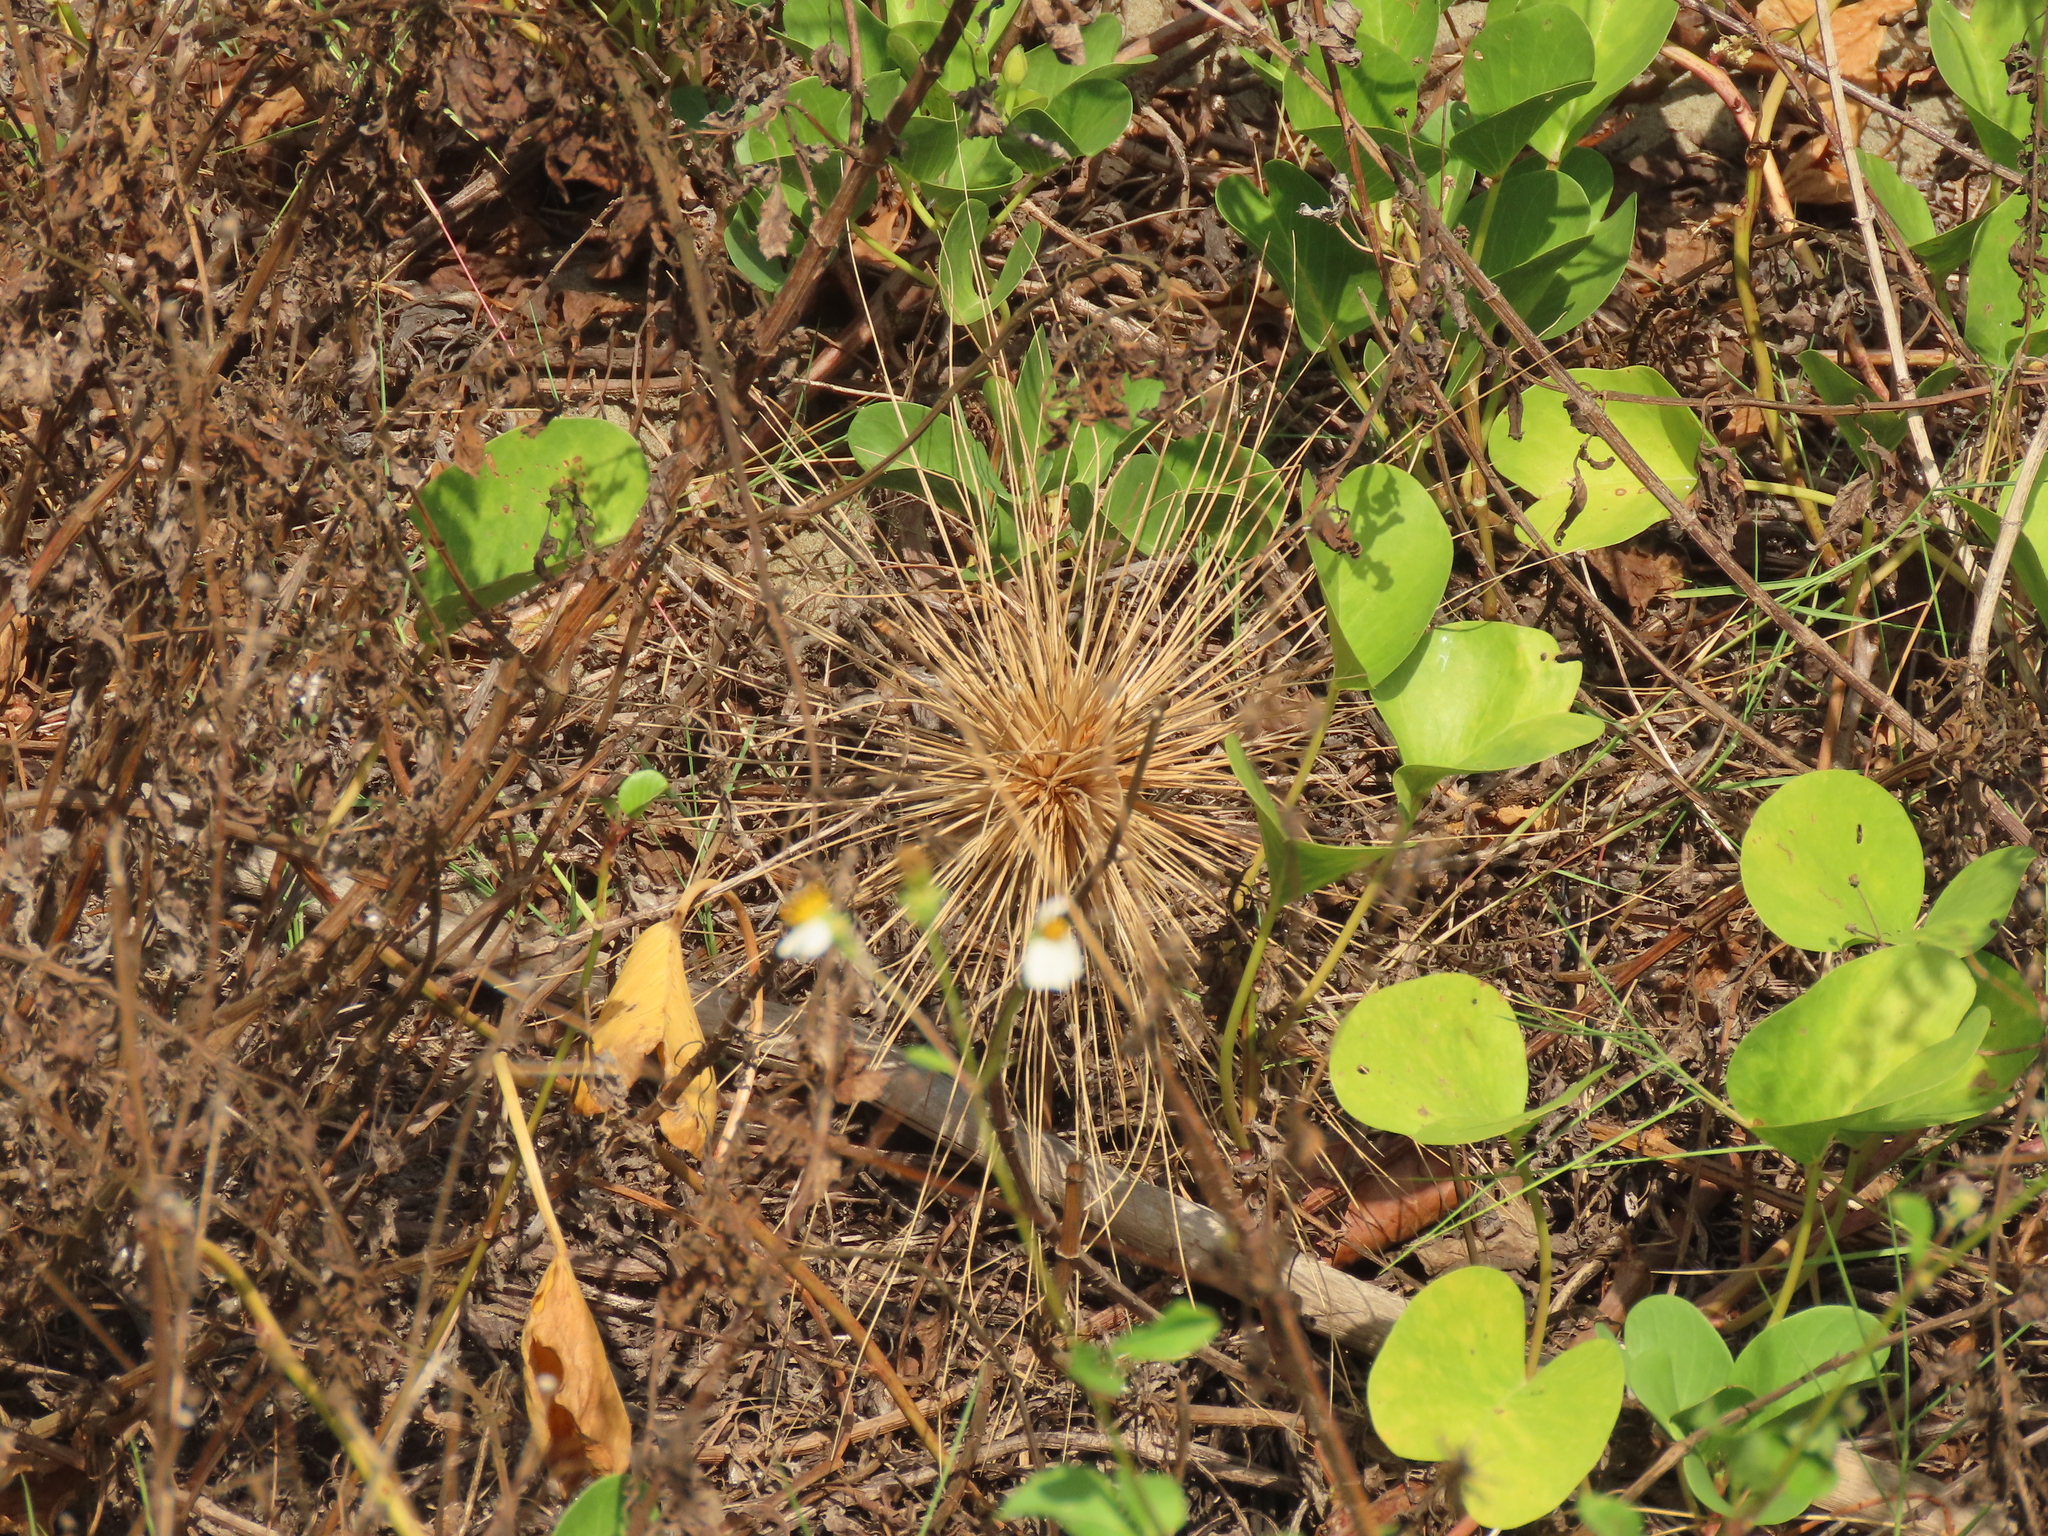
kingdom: Plantae
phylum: Tracheophyta
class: Liliopsida
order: Poales
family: Poaceae
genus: Spinifex
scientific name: Spinifex littoreus
